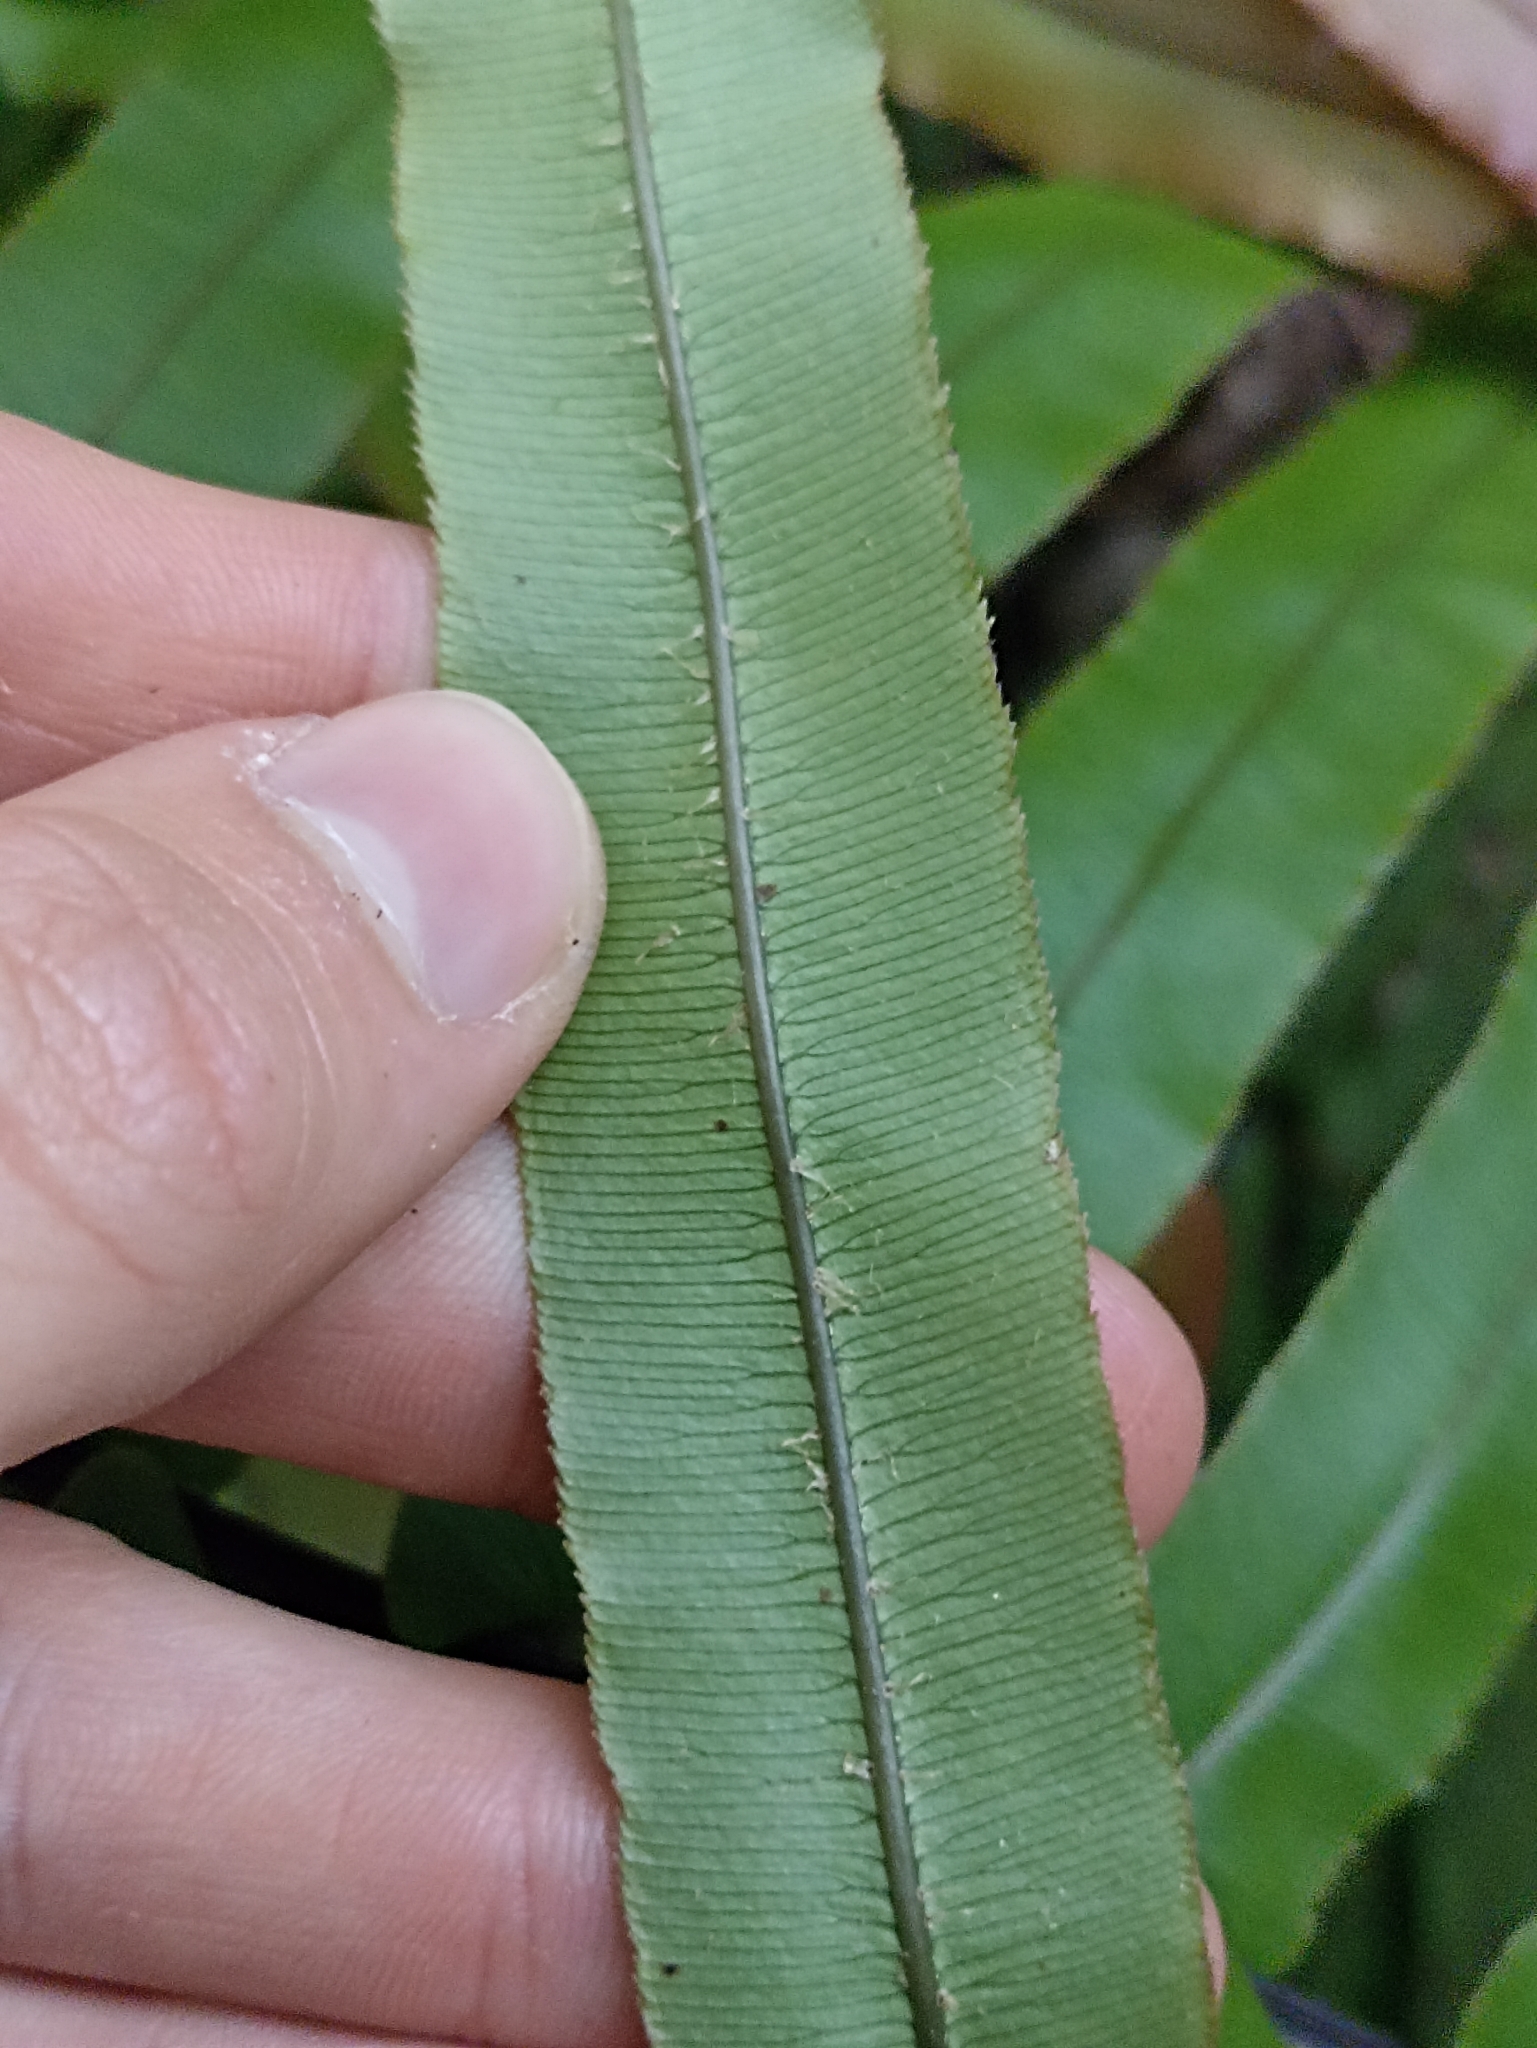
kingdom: Plantae
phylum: Tracheophyta
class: Polypodiopsida
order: Polypodiales
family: Blechnaceae
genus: Parablechnum
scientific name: Parablechnum novae-zelandiae
